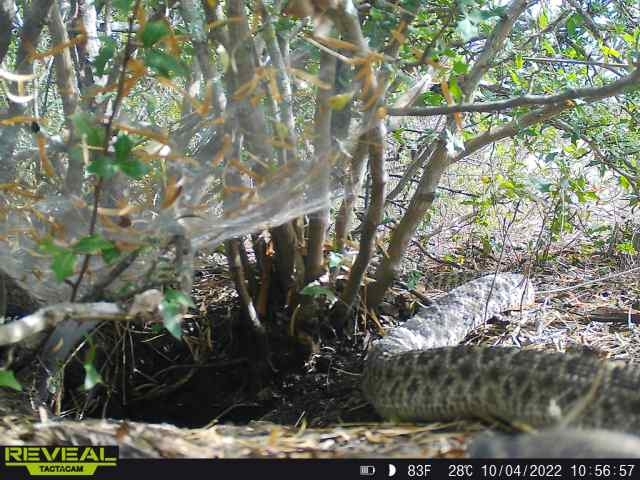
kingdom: Animalia
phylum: Chordata
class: Squamata
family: Viperidae
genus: Crotalus
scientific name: Crotalus atrox
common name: Western diamond-backed rattlesnake
